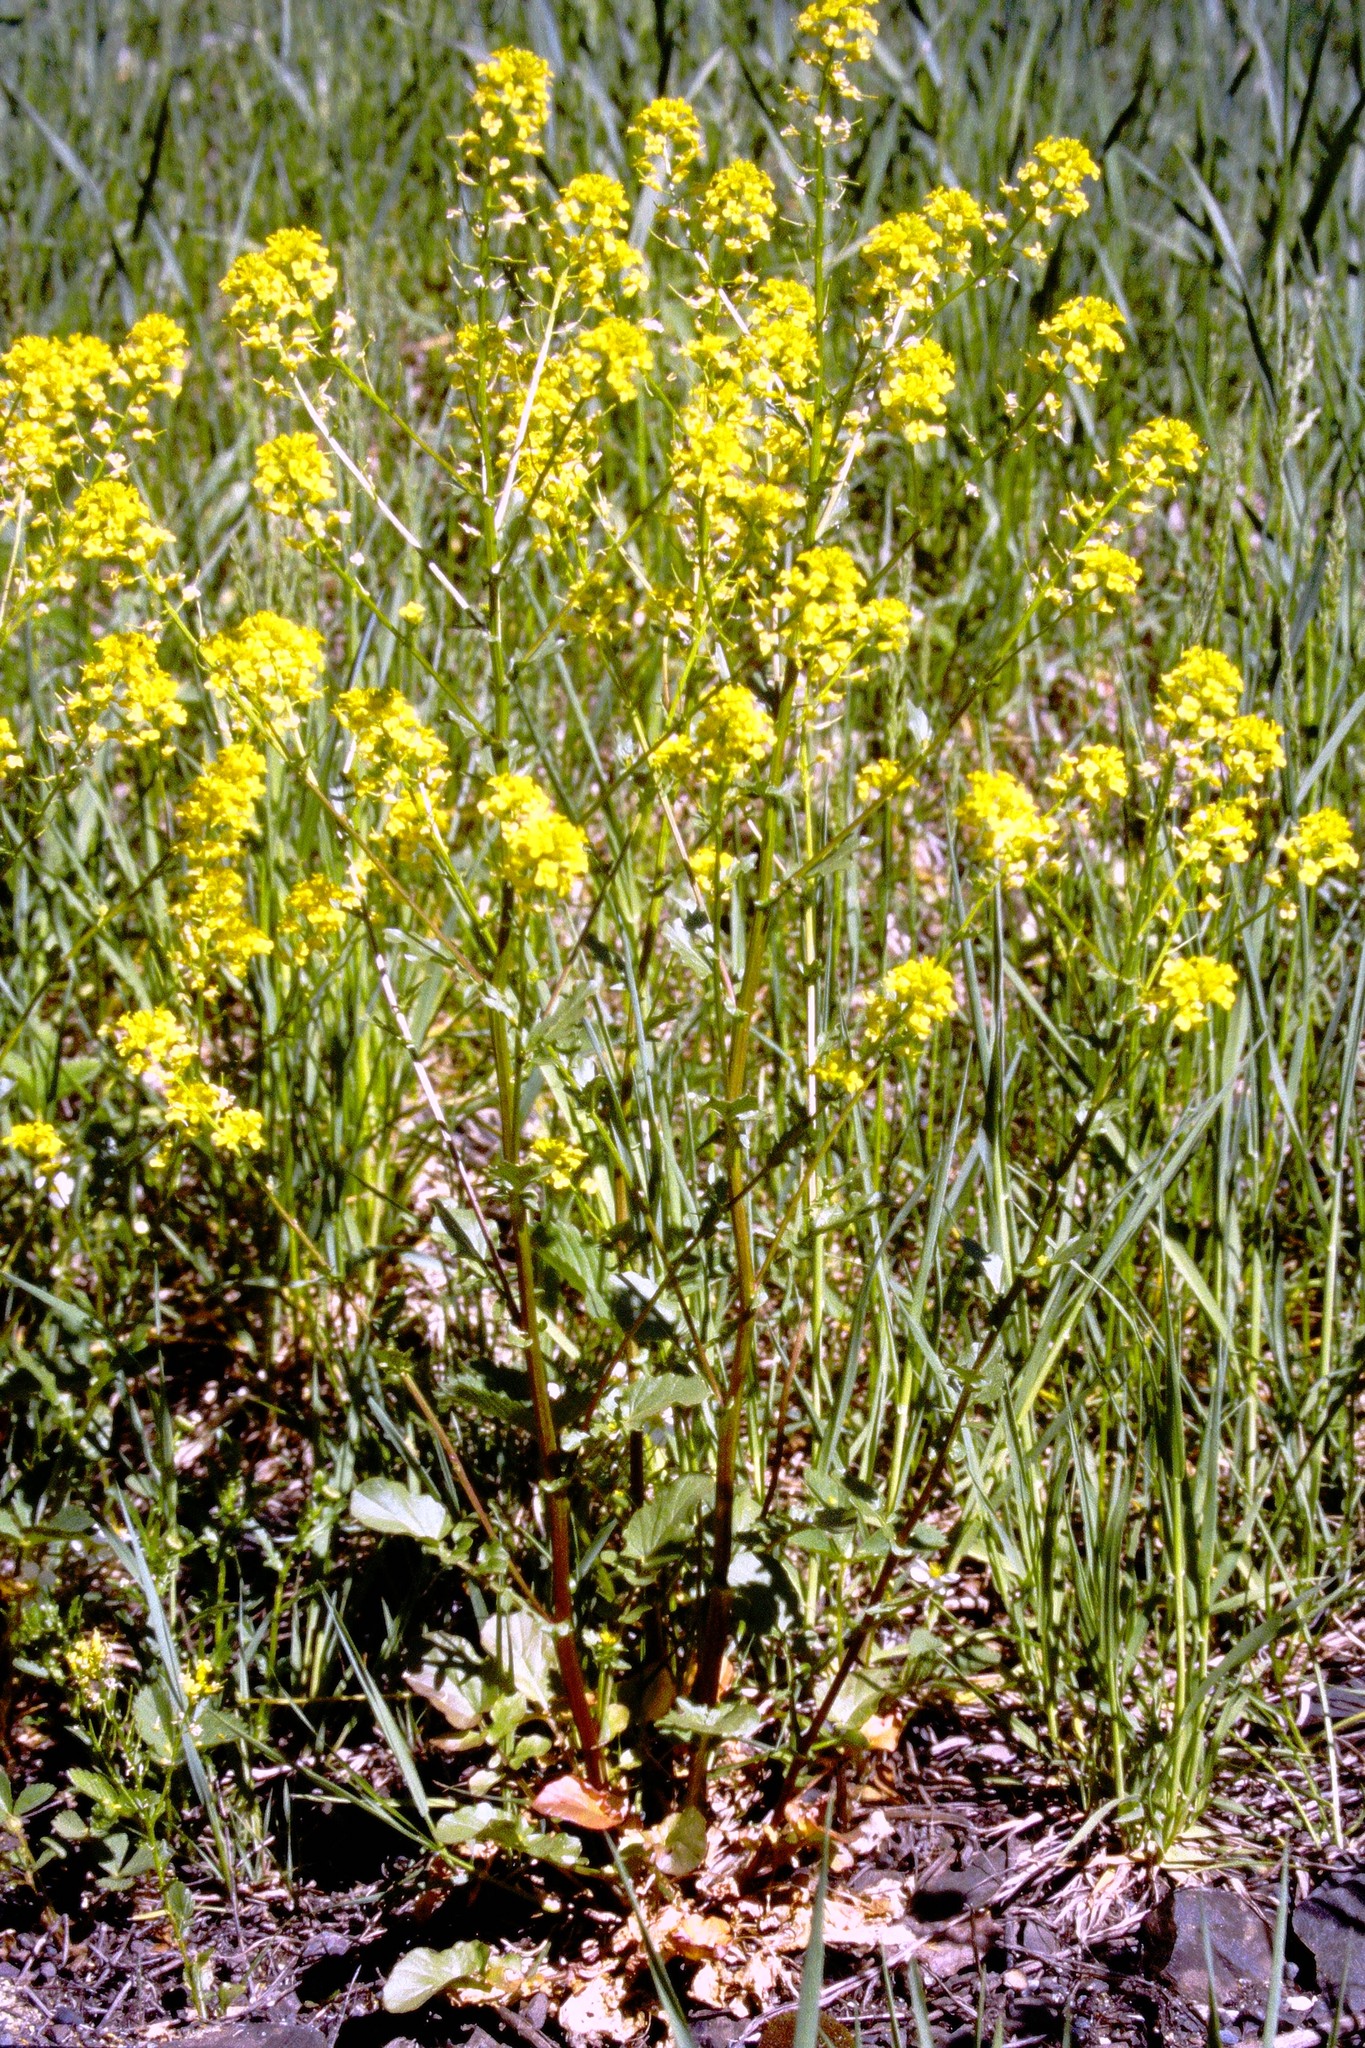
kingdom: Plantae
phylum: Tracheophyta
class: Magnoliopsida
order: Brassicales
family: Brassicaceae
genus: Barbarea
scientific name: Barbarea vulgaris
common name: Cressy-greens
